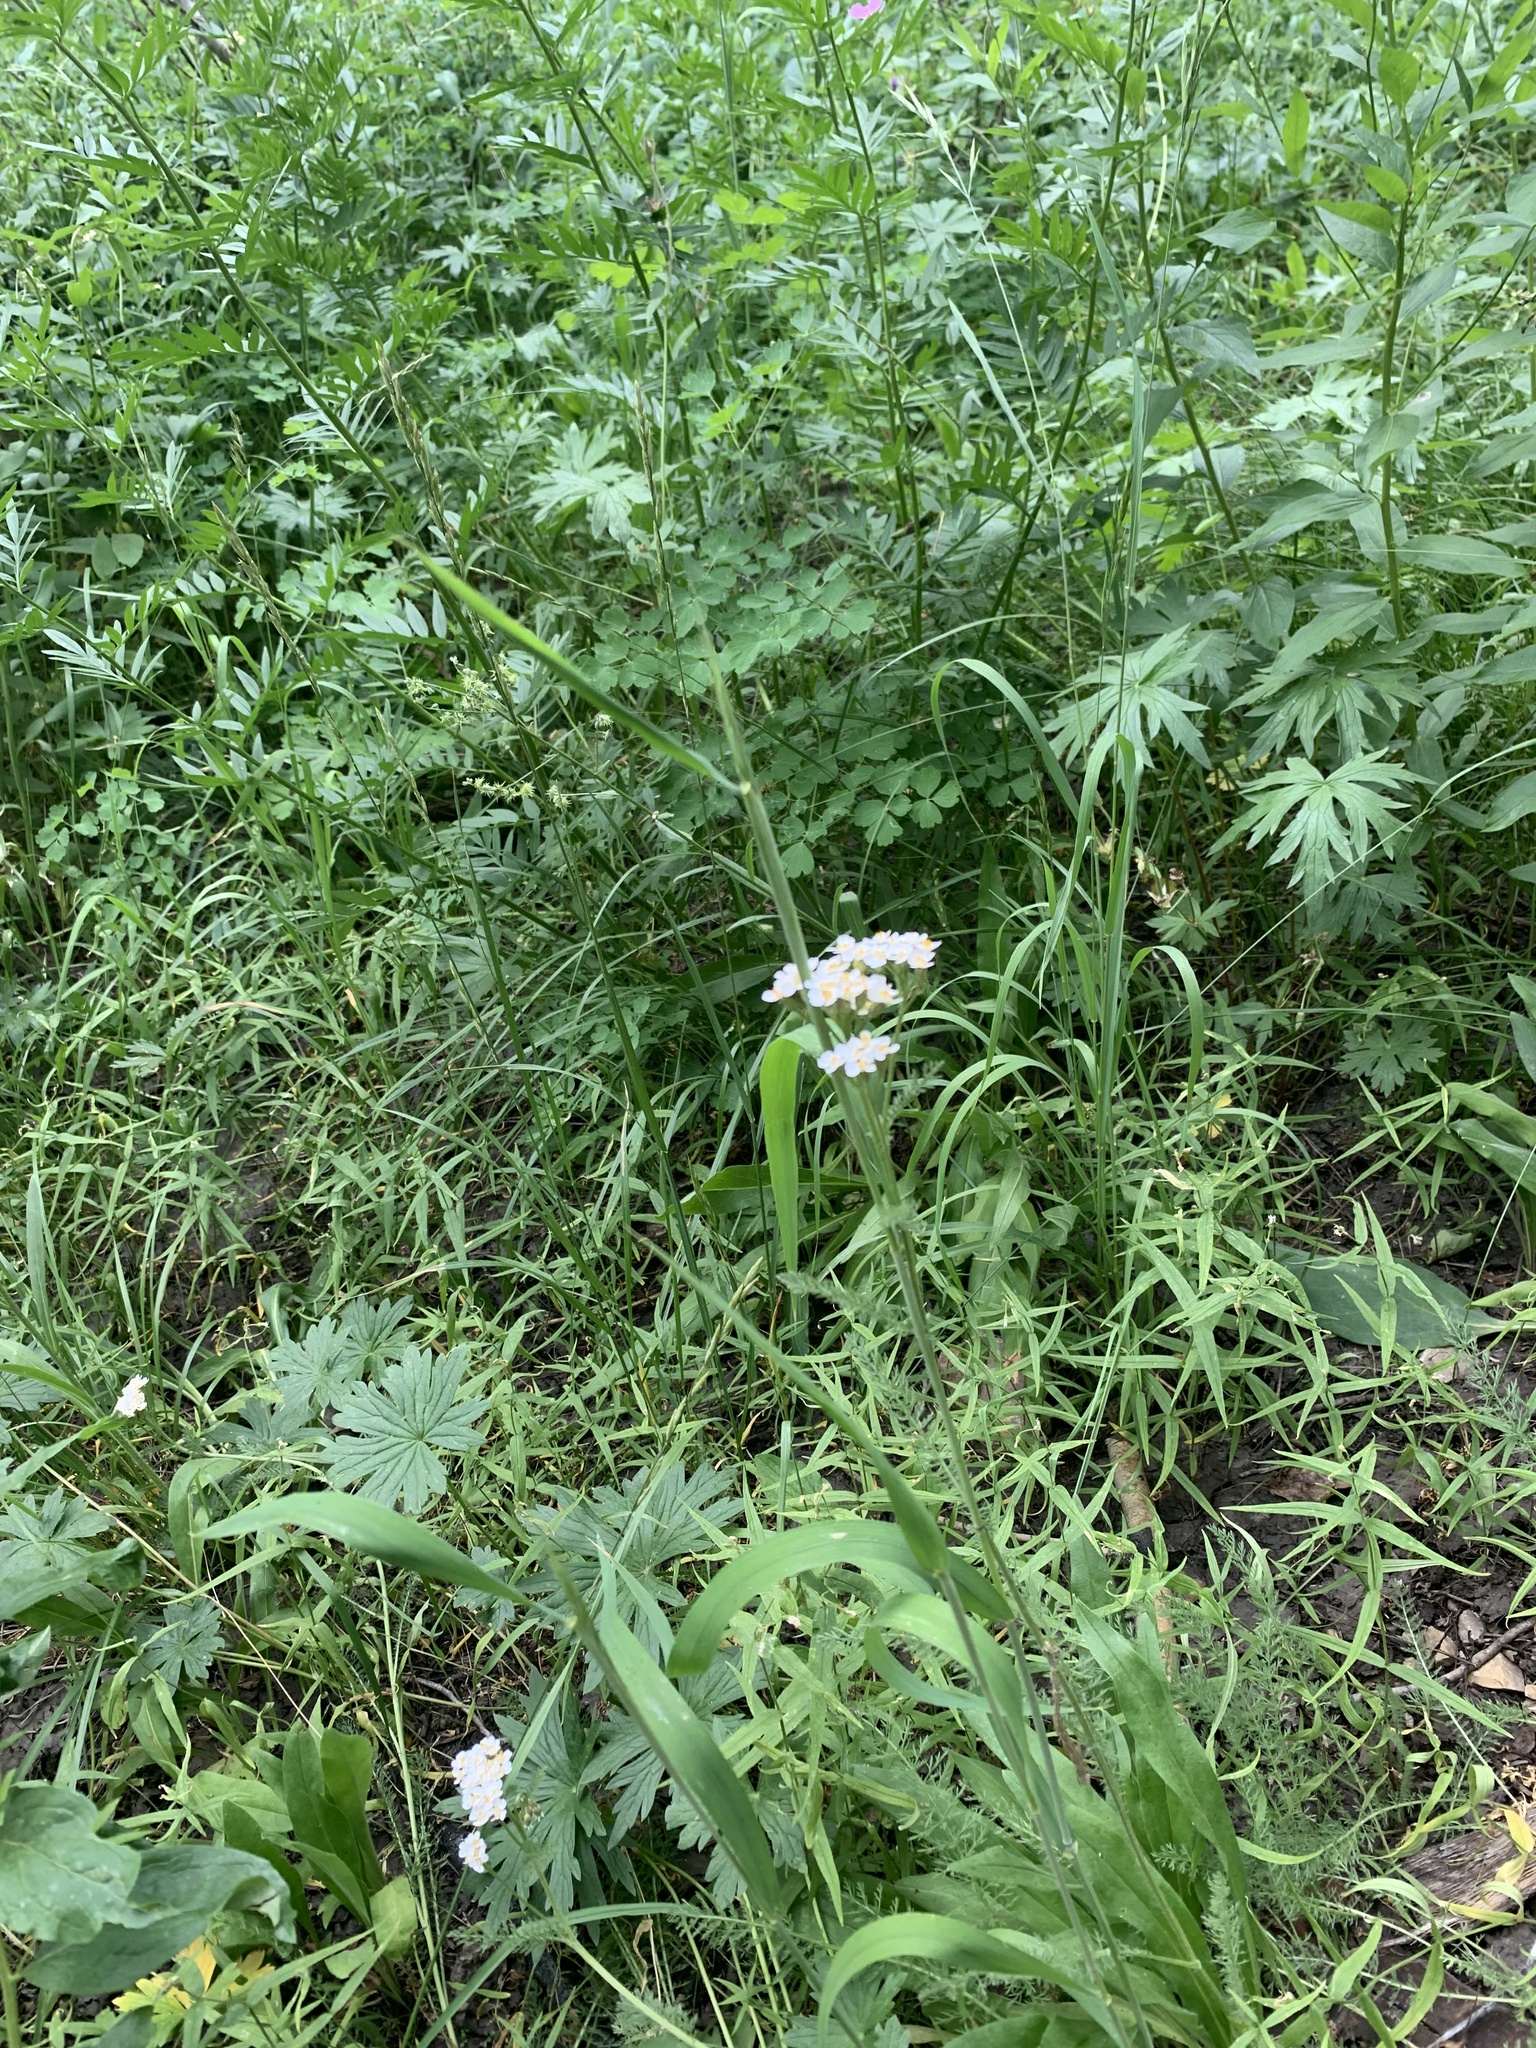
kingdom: Plantae
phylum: Tracheophyta
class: Magnoliopsida
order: Asterales
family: Asteraceae
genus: Achillea
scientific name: Achillea millefolium
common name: Yarrow
